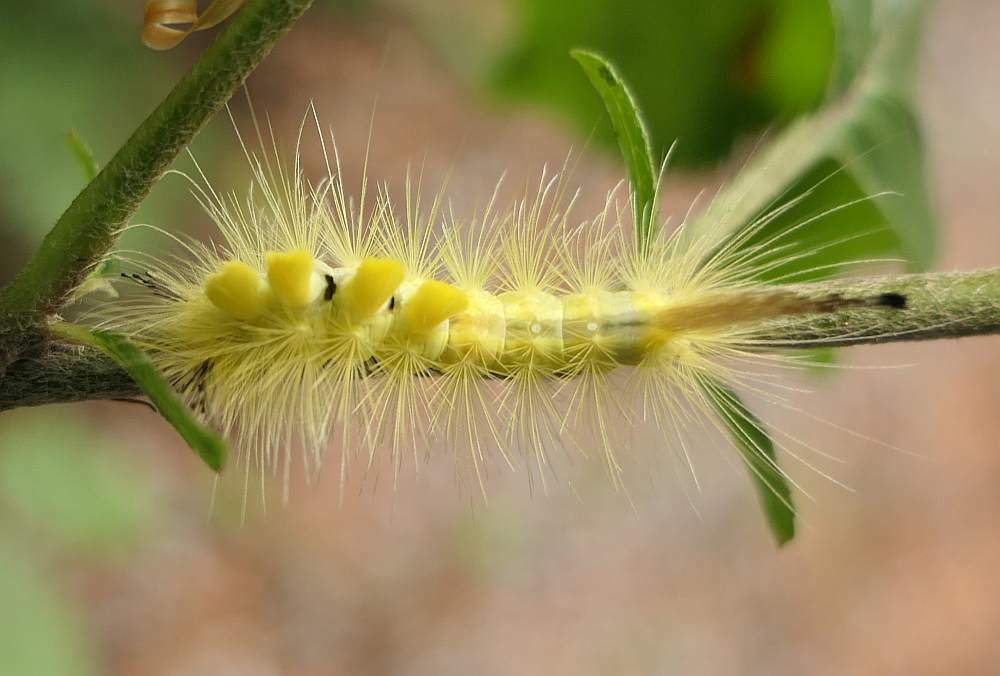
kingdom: Animalia
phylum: Arthropoda
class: Insecta
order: Lepidoptera
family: Erebidae
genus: Orgyia
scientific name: Orgyia definita
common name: Definite tussock moth
